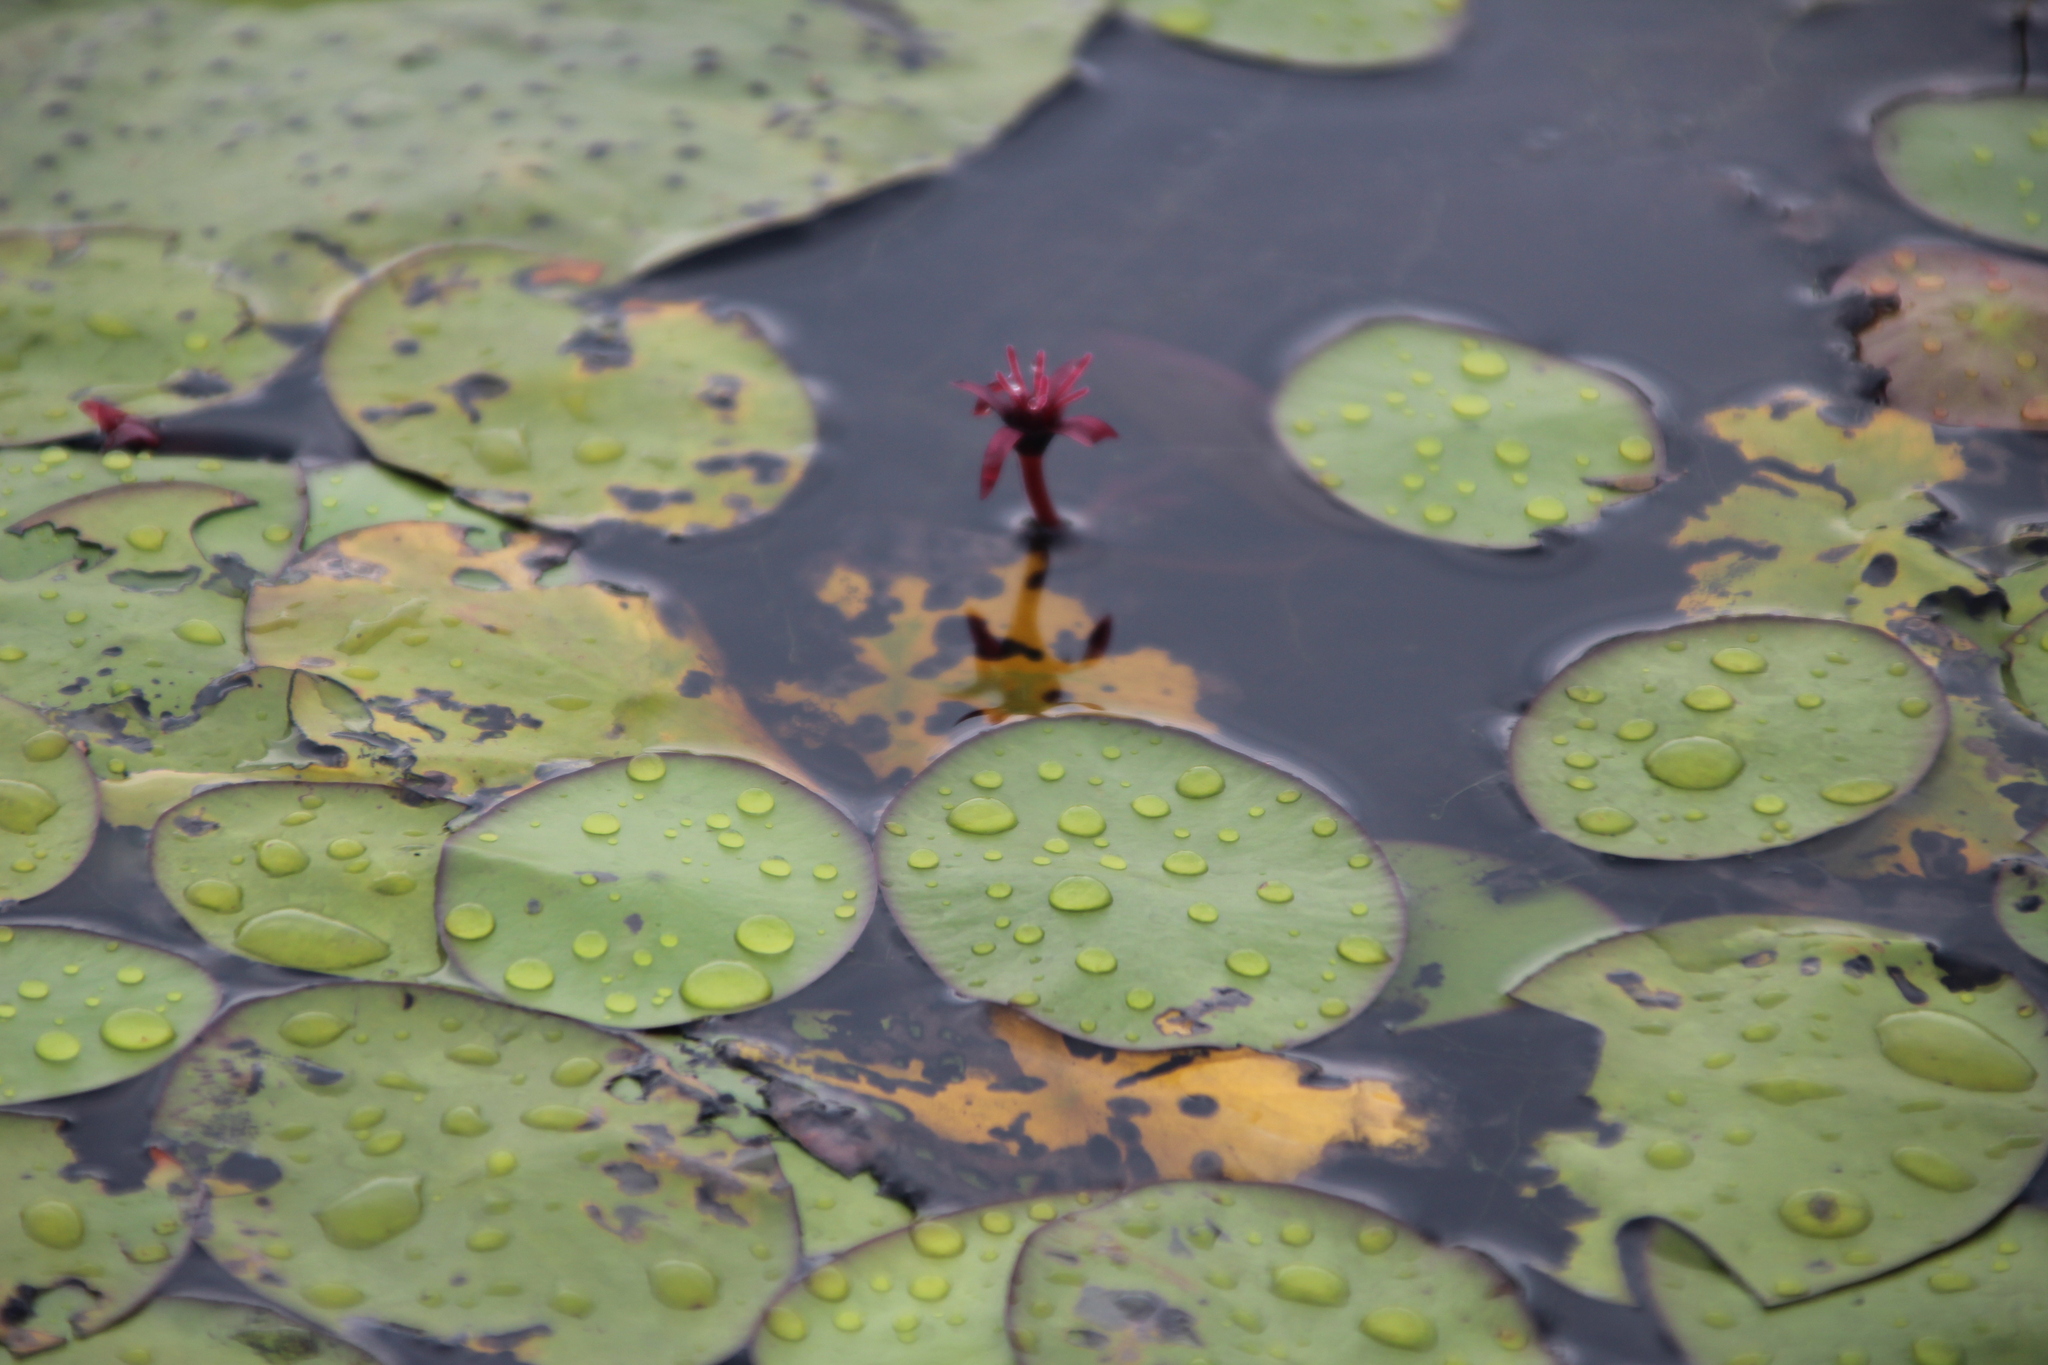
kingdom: Plantae
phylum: Tracheophyta
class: Magnoliopsida
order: Nymphaeales
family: Cabombaceae
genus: Brasenia
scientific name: Brasenia schreberi
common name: Water-shield
